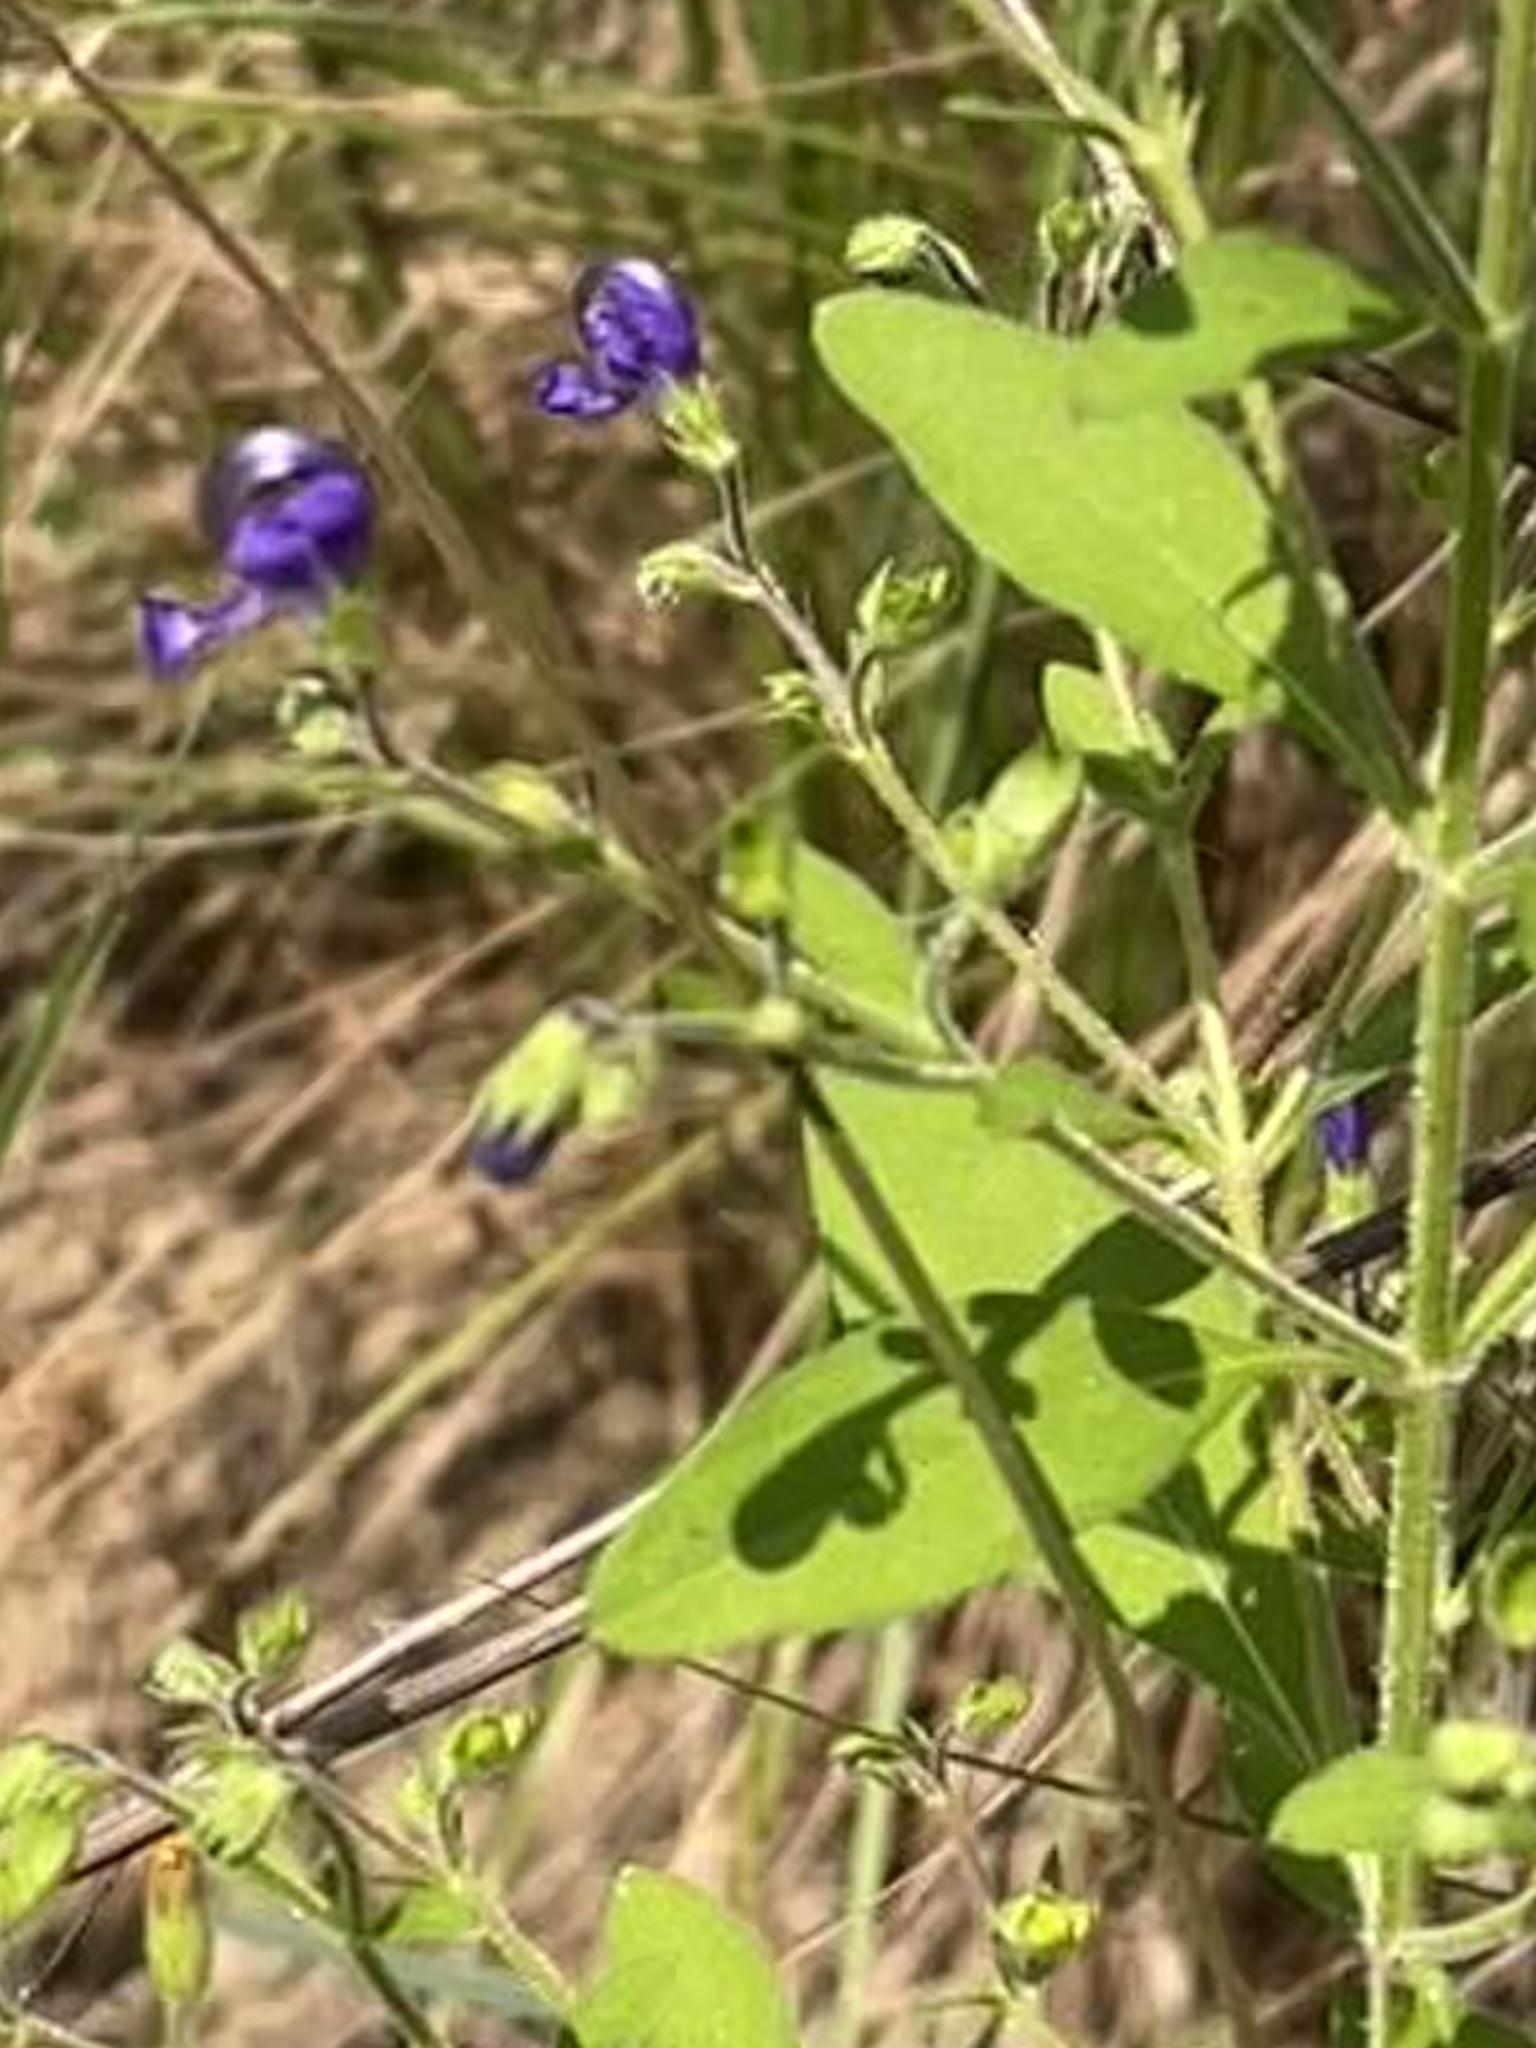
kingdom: Plantae
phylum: Tracheophyta
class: Magnoliopsida
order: Lamiales
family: Lamiaceae
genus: Trichostema
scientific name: Trichostema dichotomum
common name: Bastard pennyroyal
